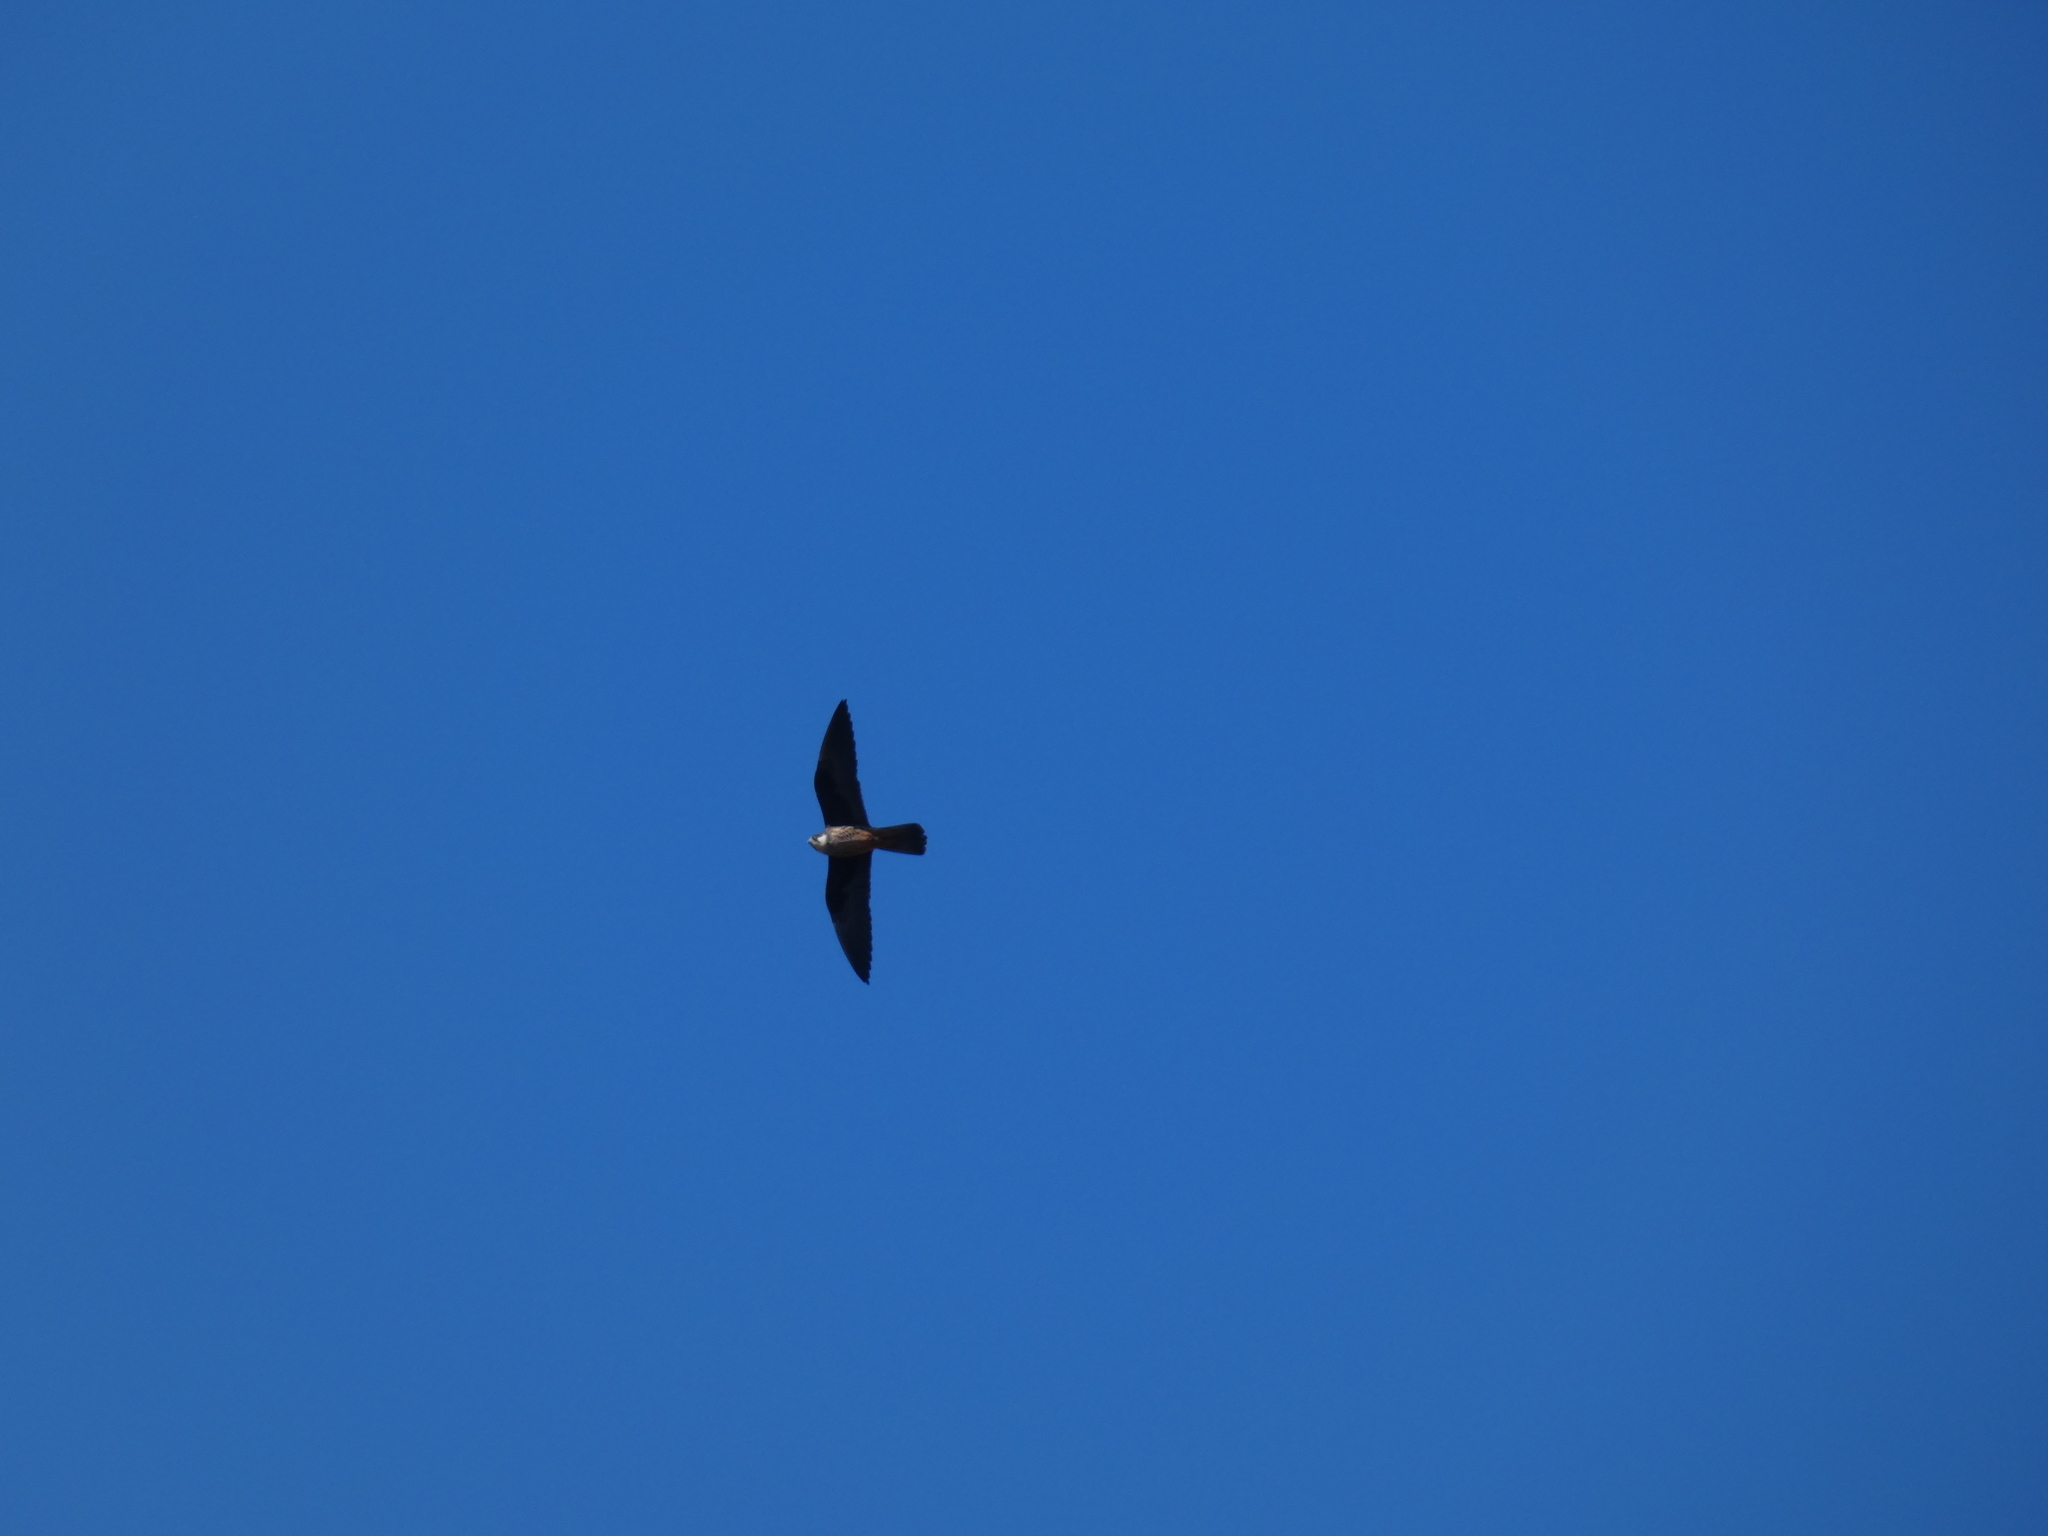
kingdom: Animalia
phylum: Chordata
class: Aves
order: Falconiformes
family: Falconidae
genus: Falco
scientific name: Falco eleonorae
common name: Eleonora's falcon
